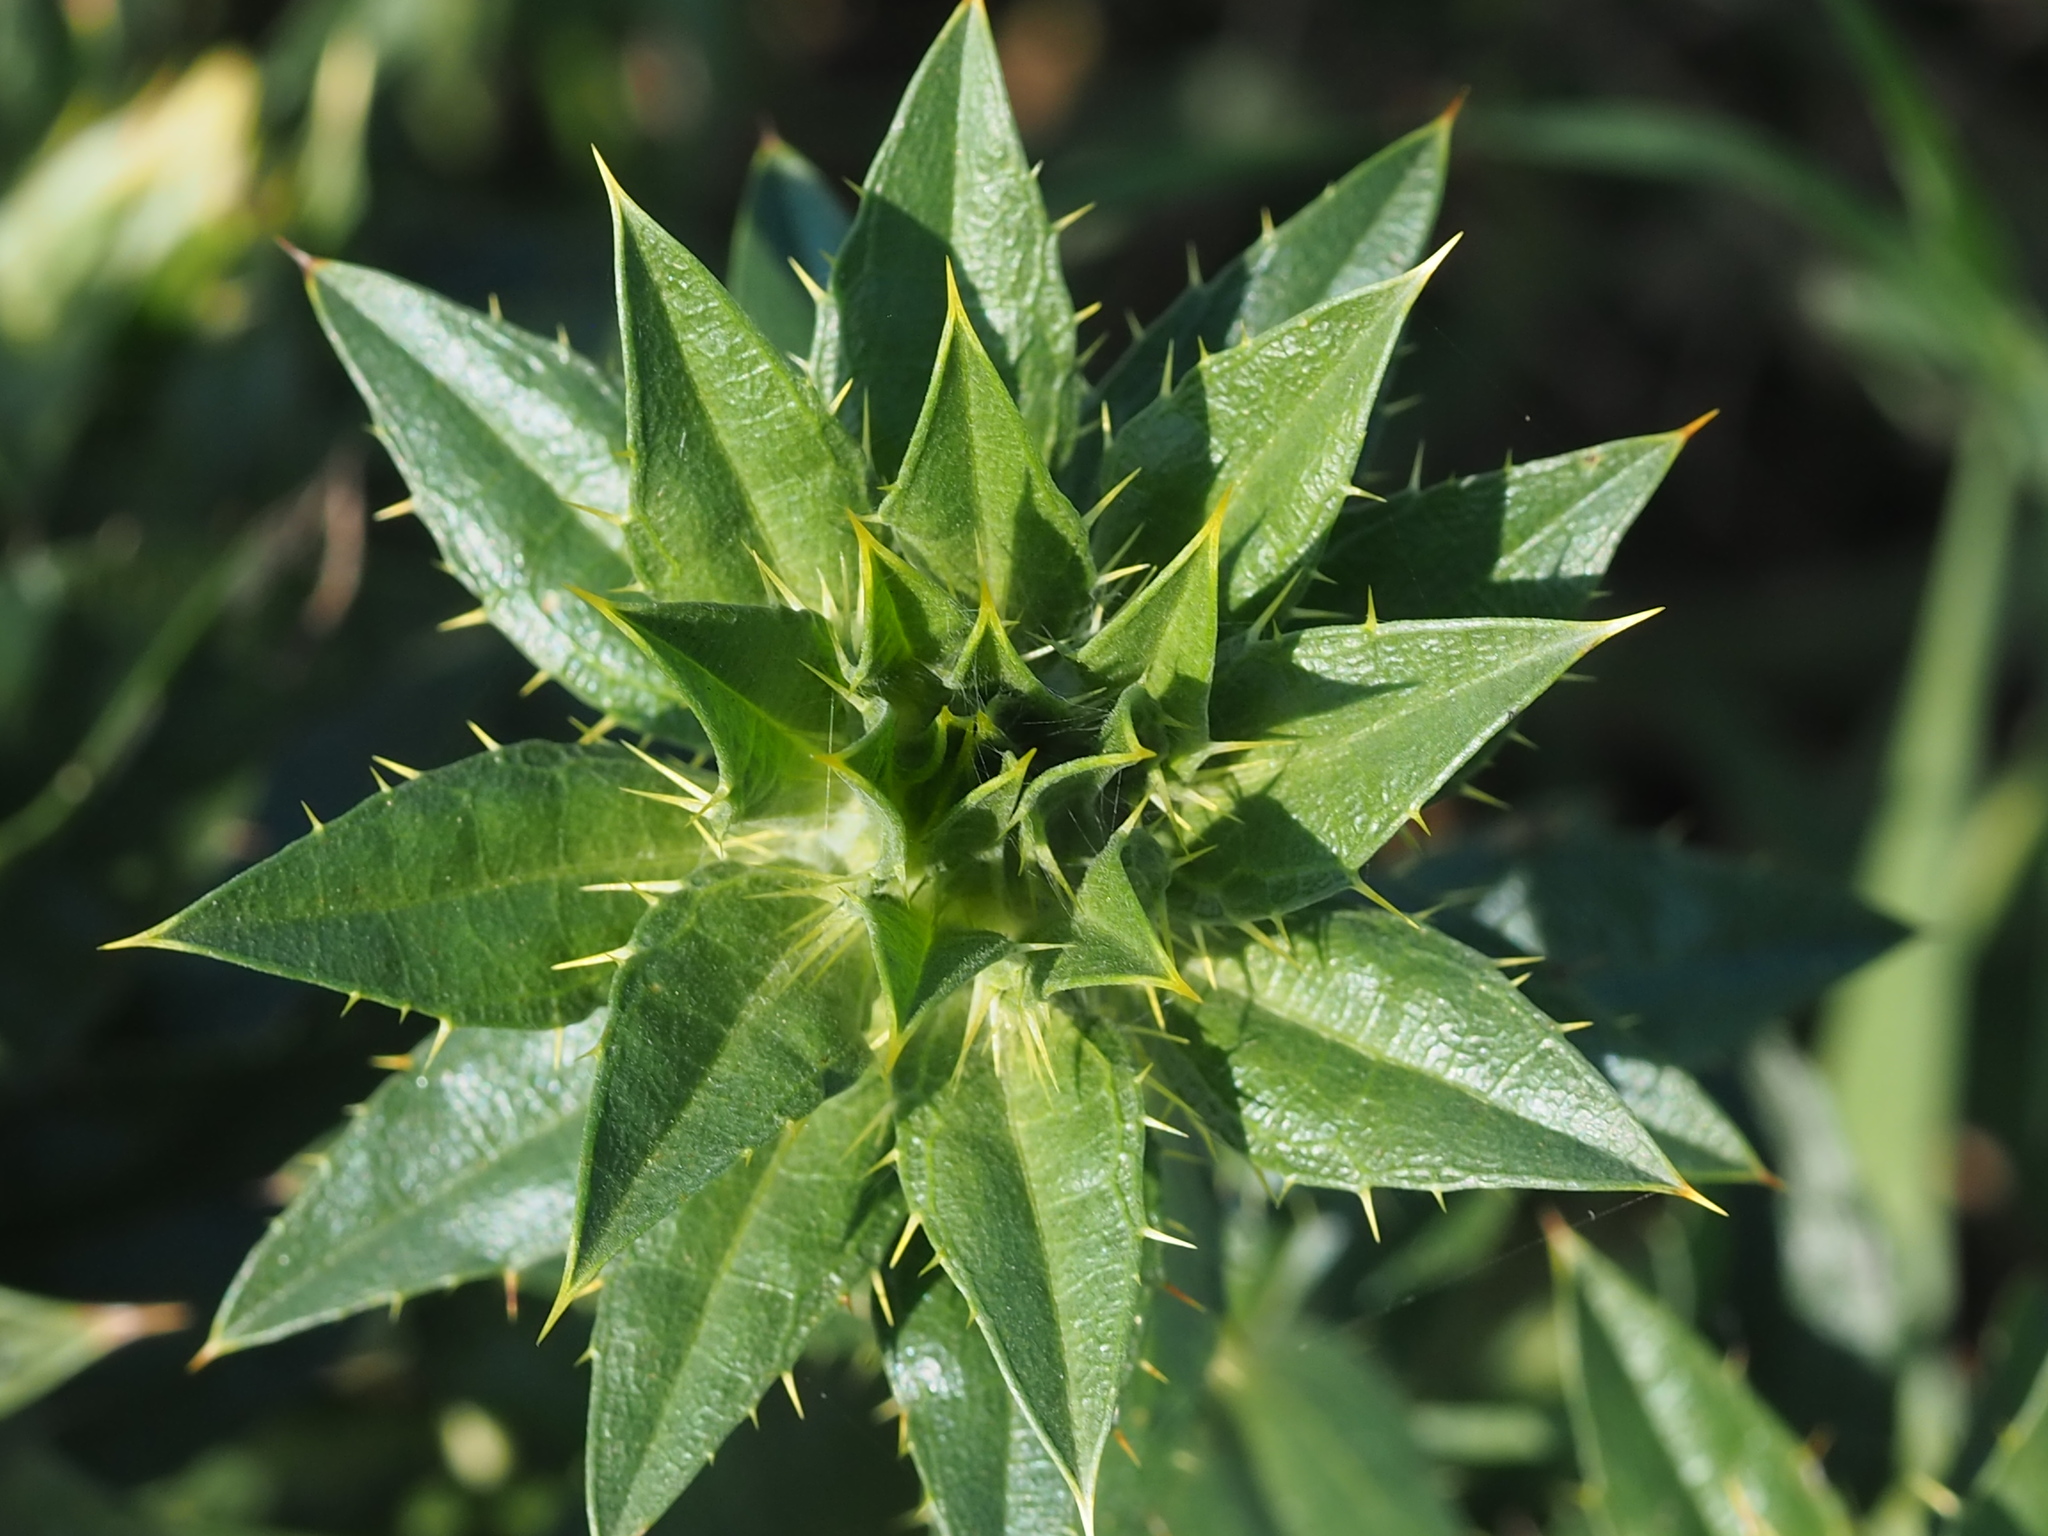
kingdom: Plantae
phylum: Tracheophyta
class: Magnoliopsida
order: Asterales
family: Asteraceae
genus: Carthamus
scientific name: Carthamus tinctorius
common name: Safflower
